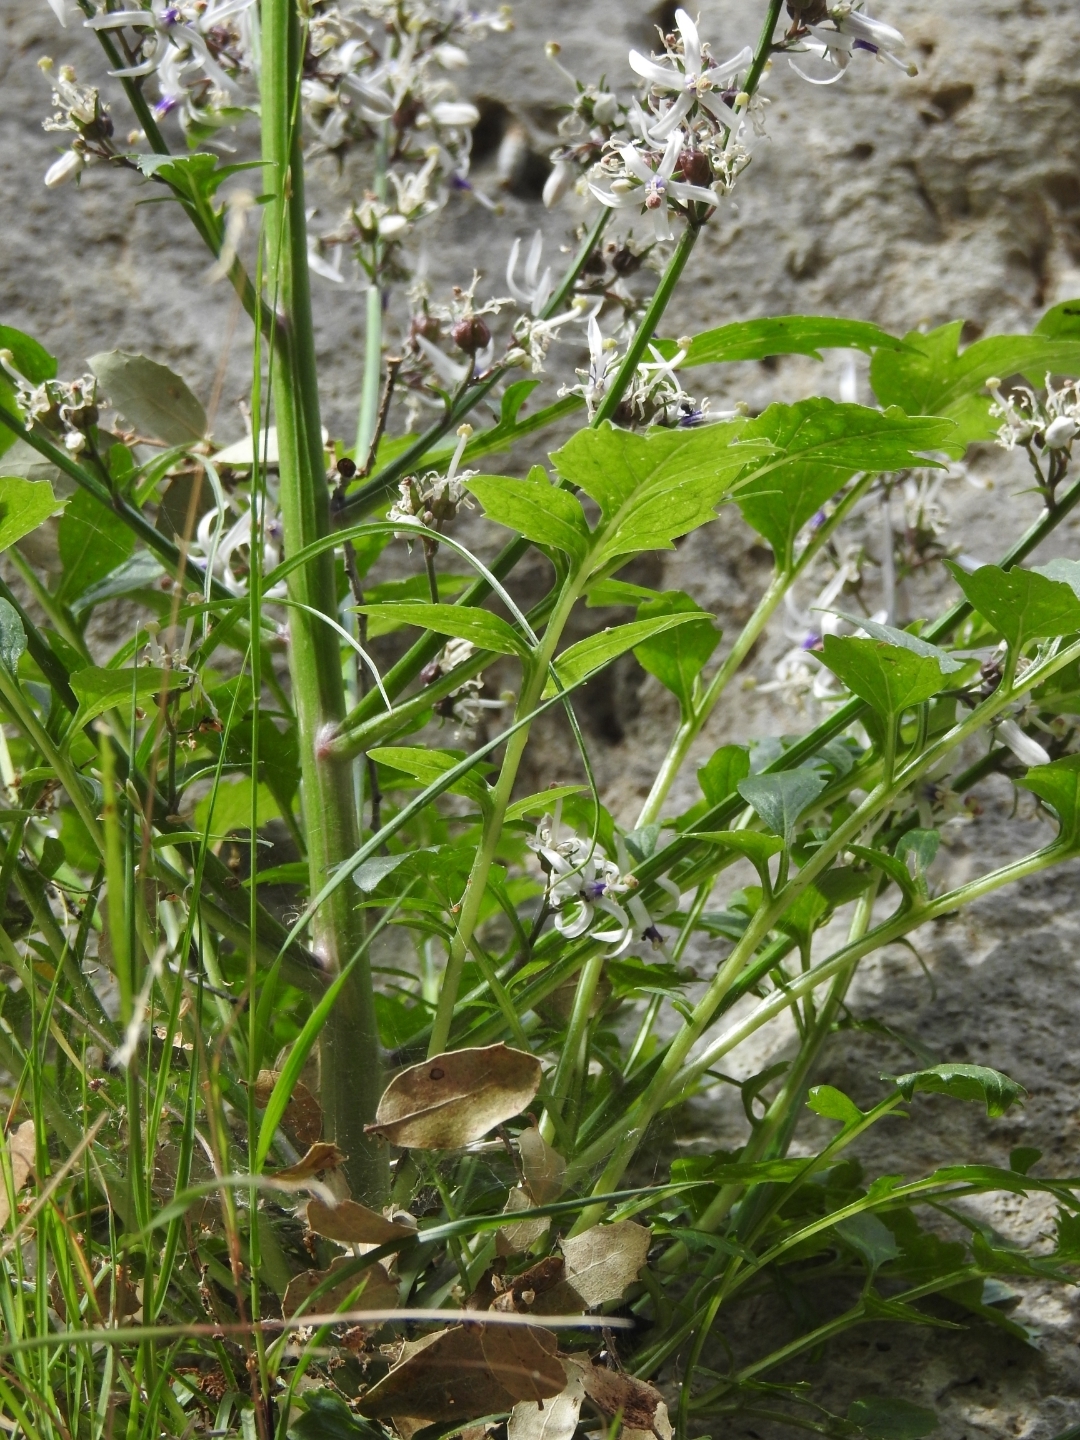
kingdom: Plantae
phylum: Tracheophyta
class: Magnoliopsida
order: Asterales
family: Campanulaceae
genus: Petromarula
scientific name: Petromarula pinnata
